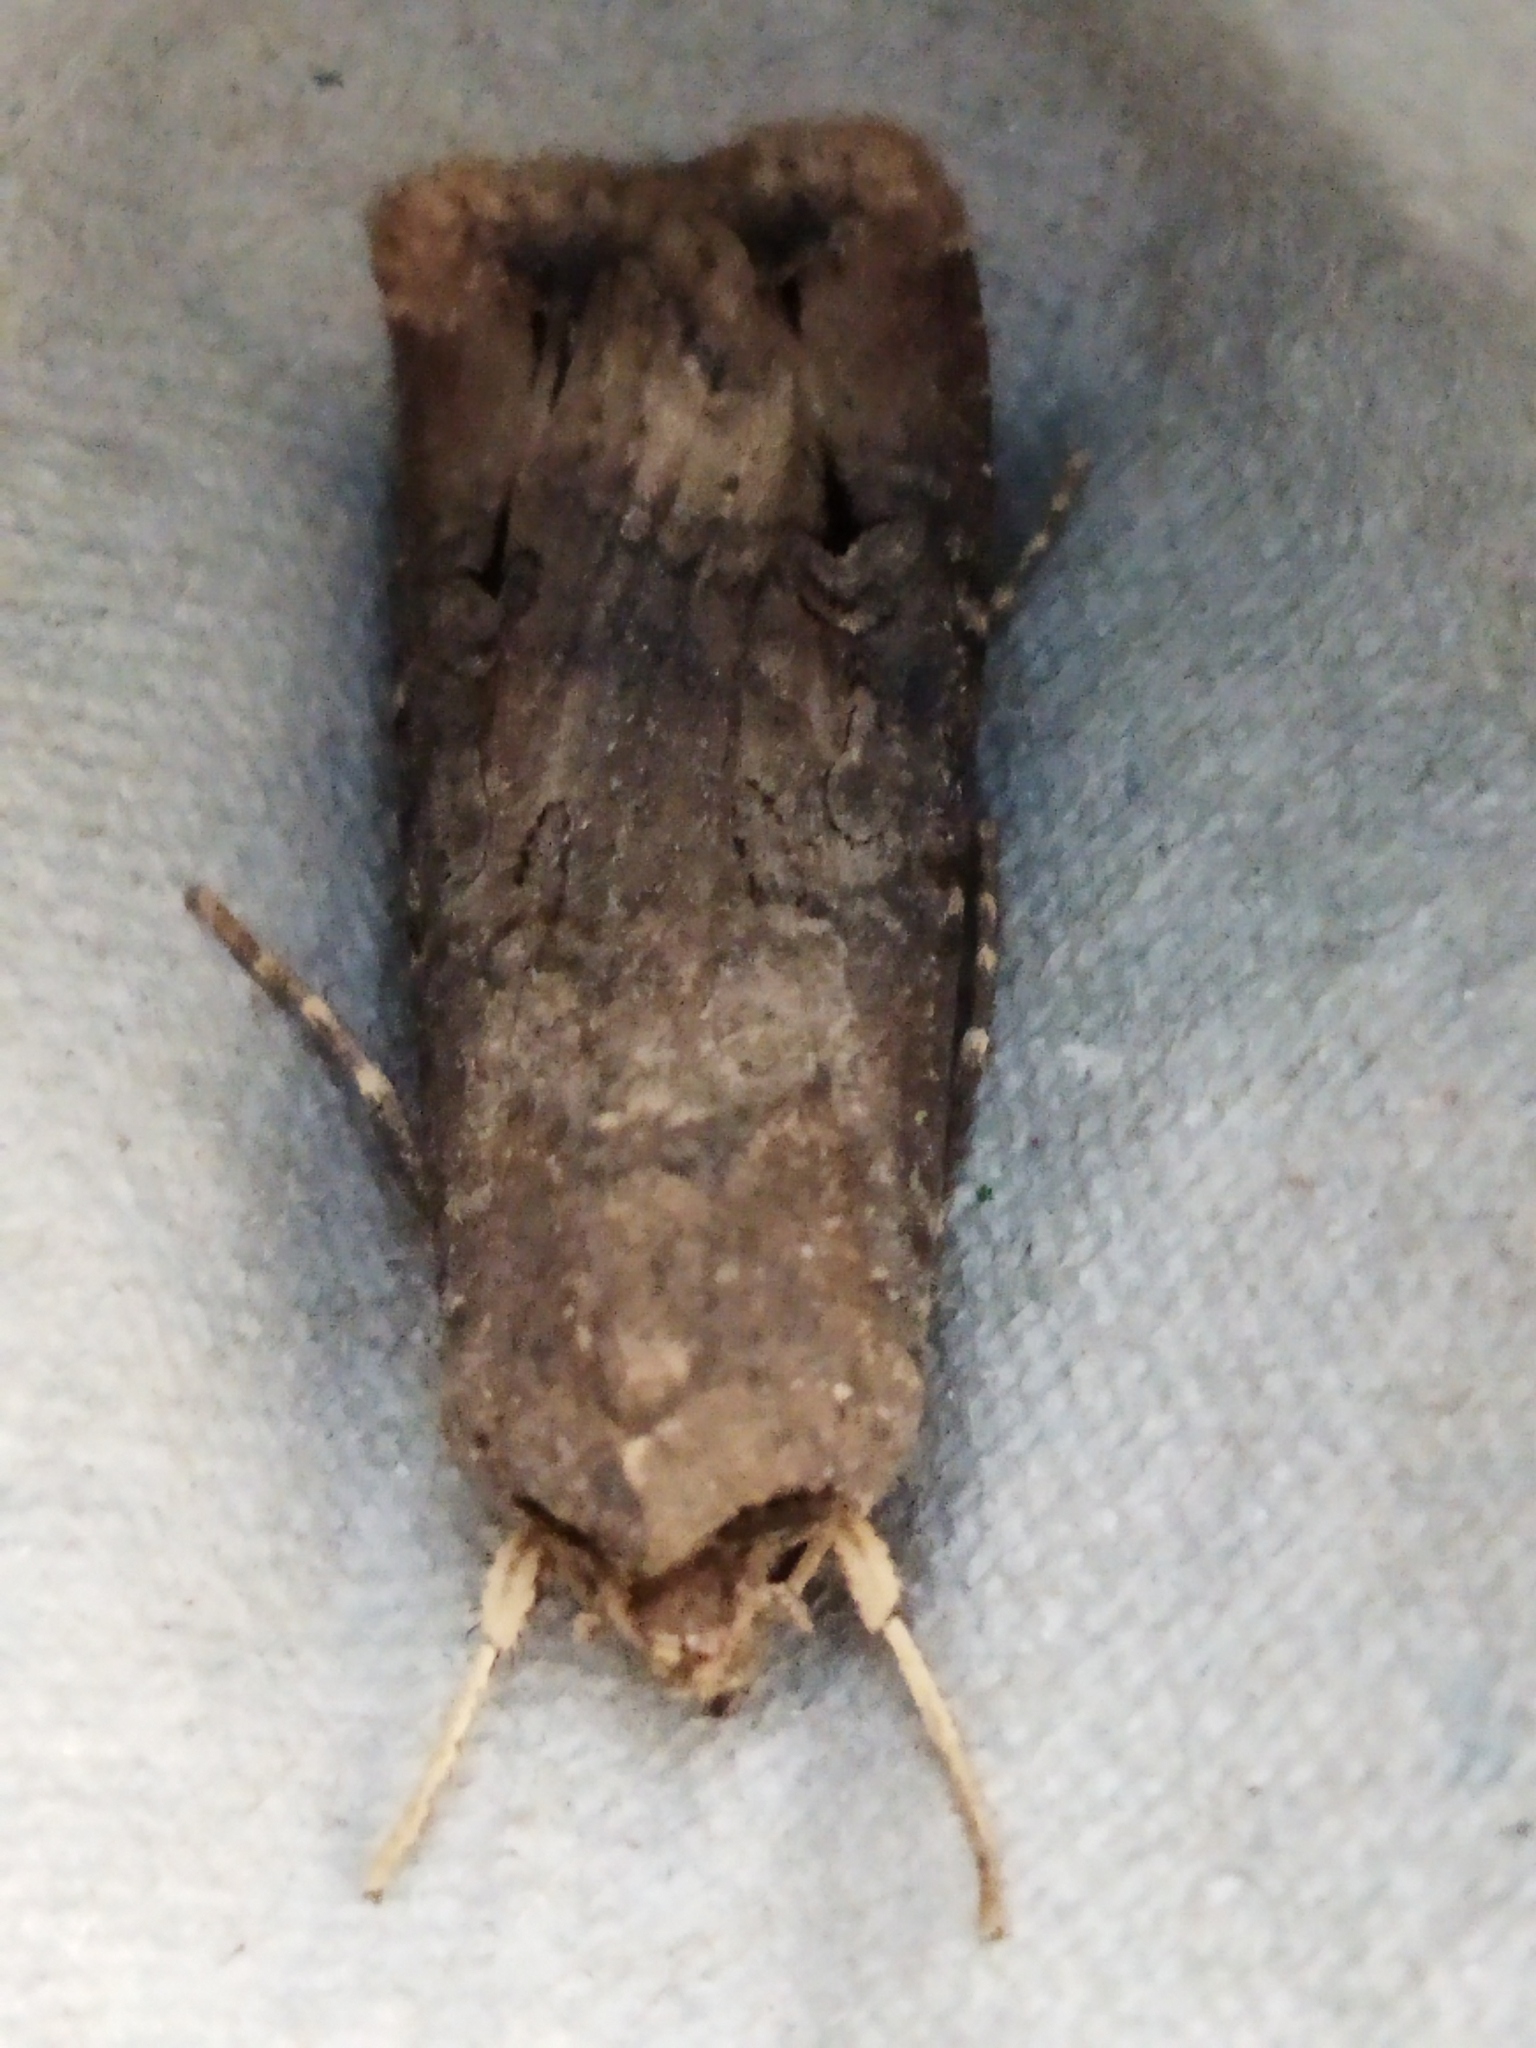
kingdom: Animalia
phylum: Arthropoda
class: Insecta
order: Lepidoptera
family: Noctuidae
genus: Agrotis
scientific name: Agrotis ipsilon
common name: Dark sword-grass
